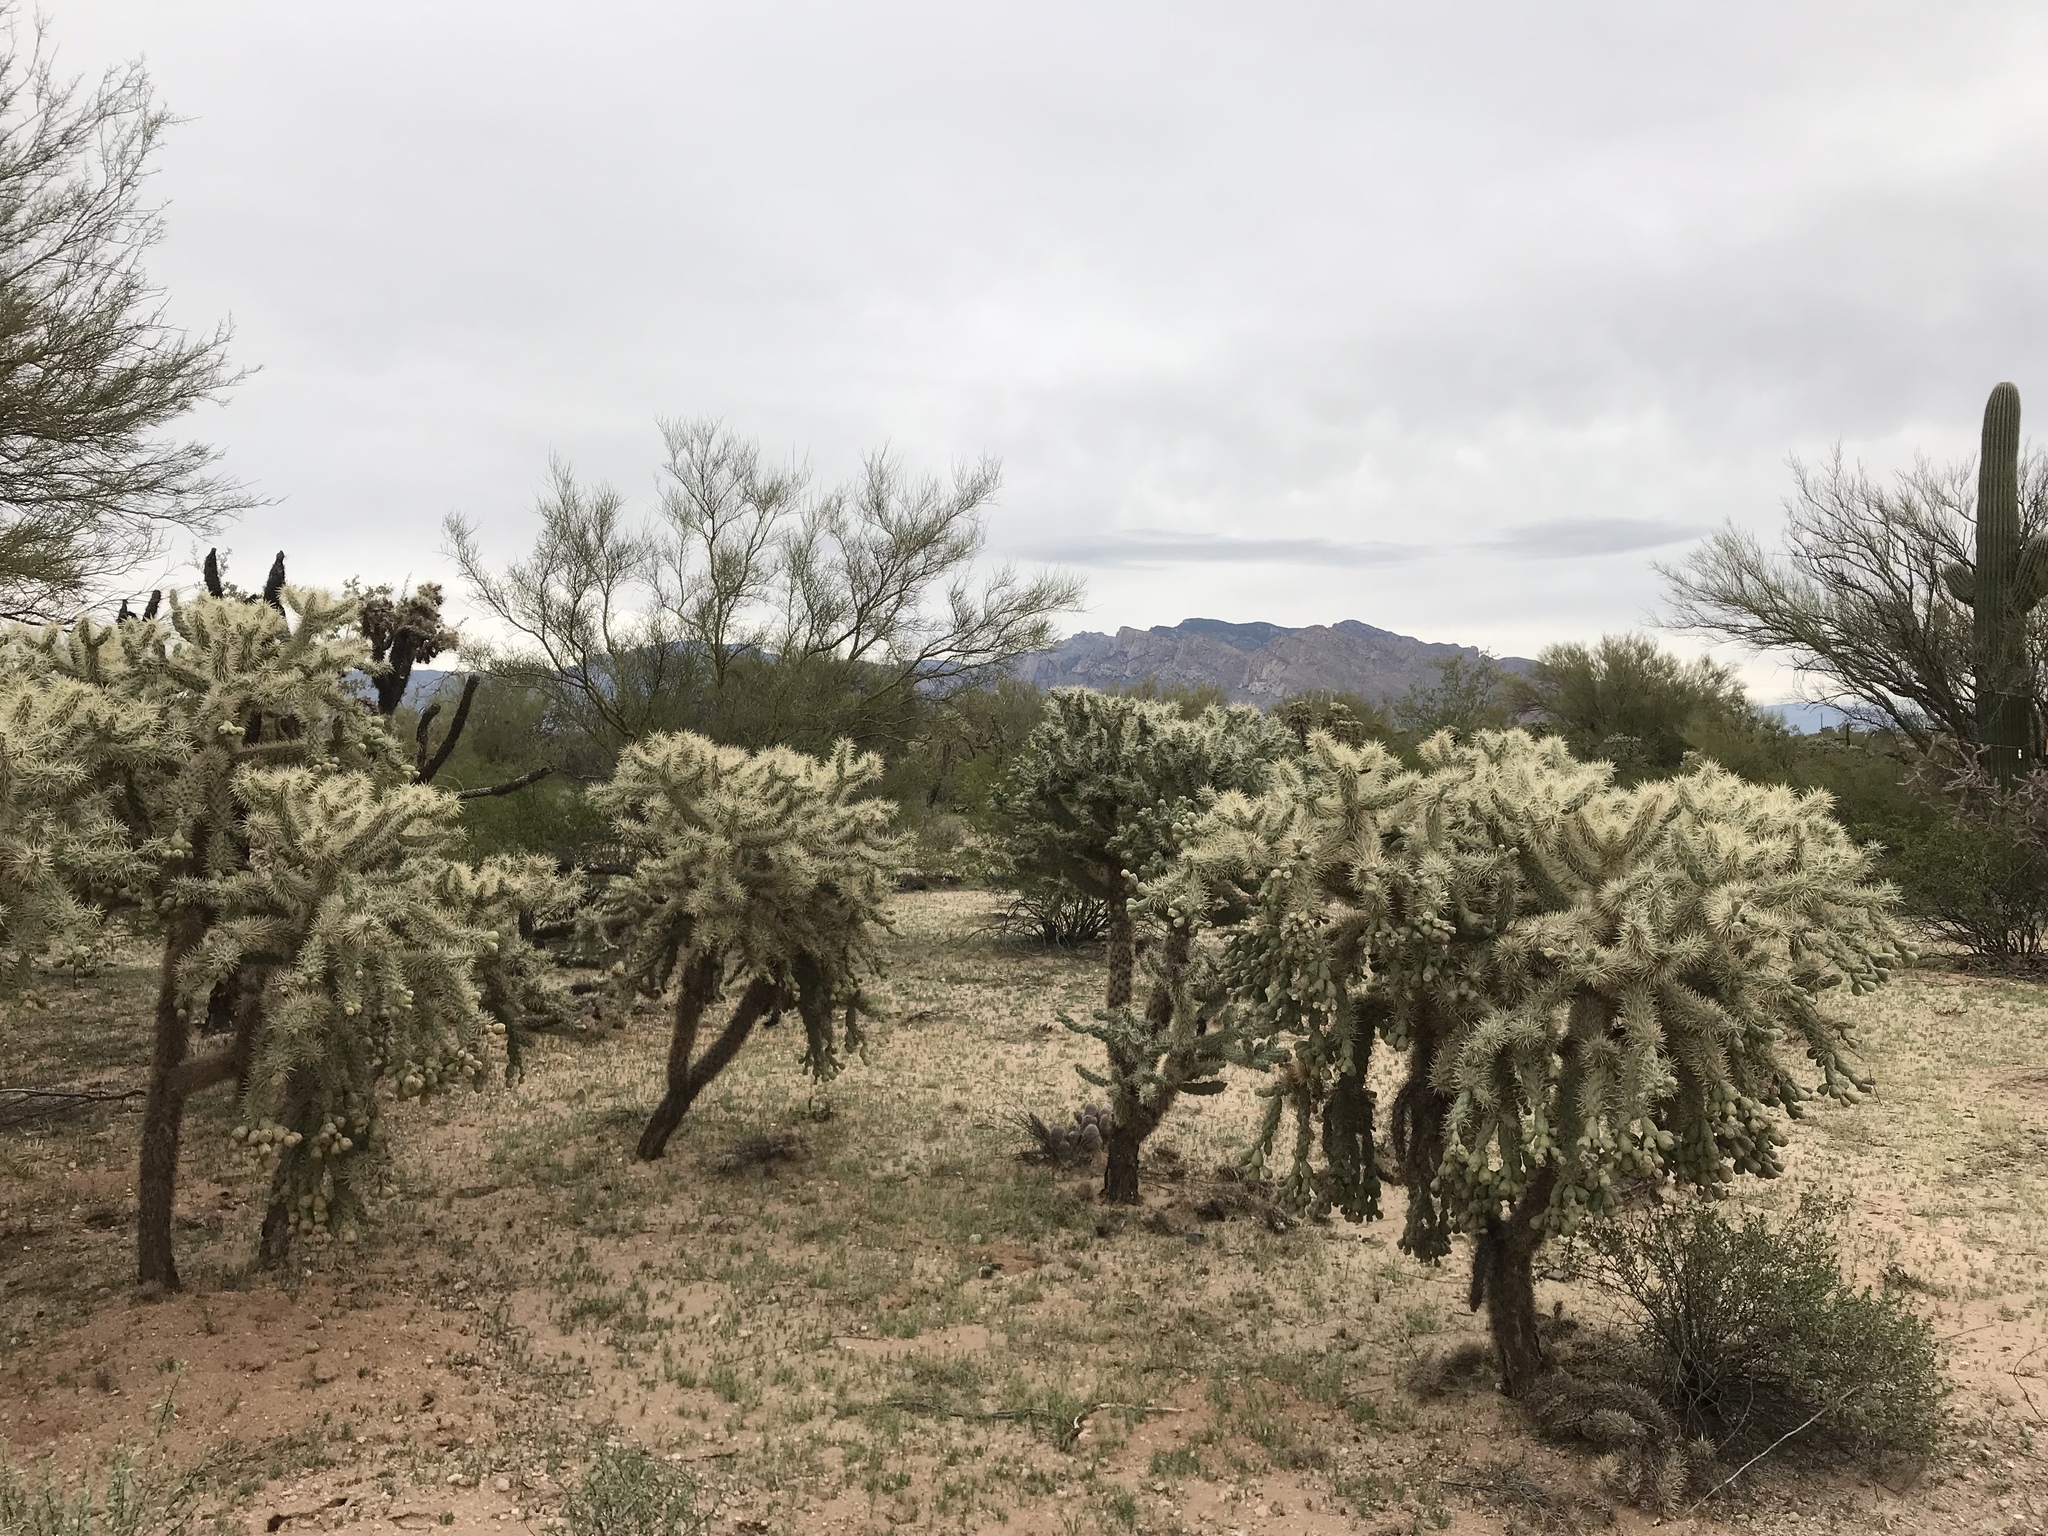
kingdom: Plantae
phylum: Tracheophyta
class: Magnoliopsida
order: Caryophyllales
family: Cactaceae
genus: Cylindropuntia
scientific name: Cylindropuntia fulgida
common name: Jumping cholla
